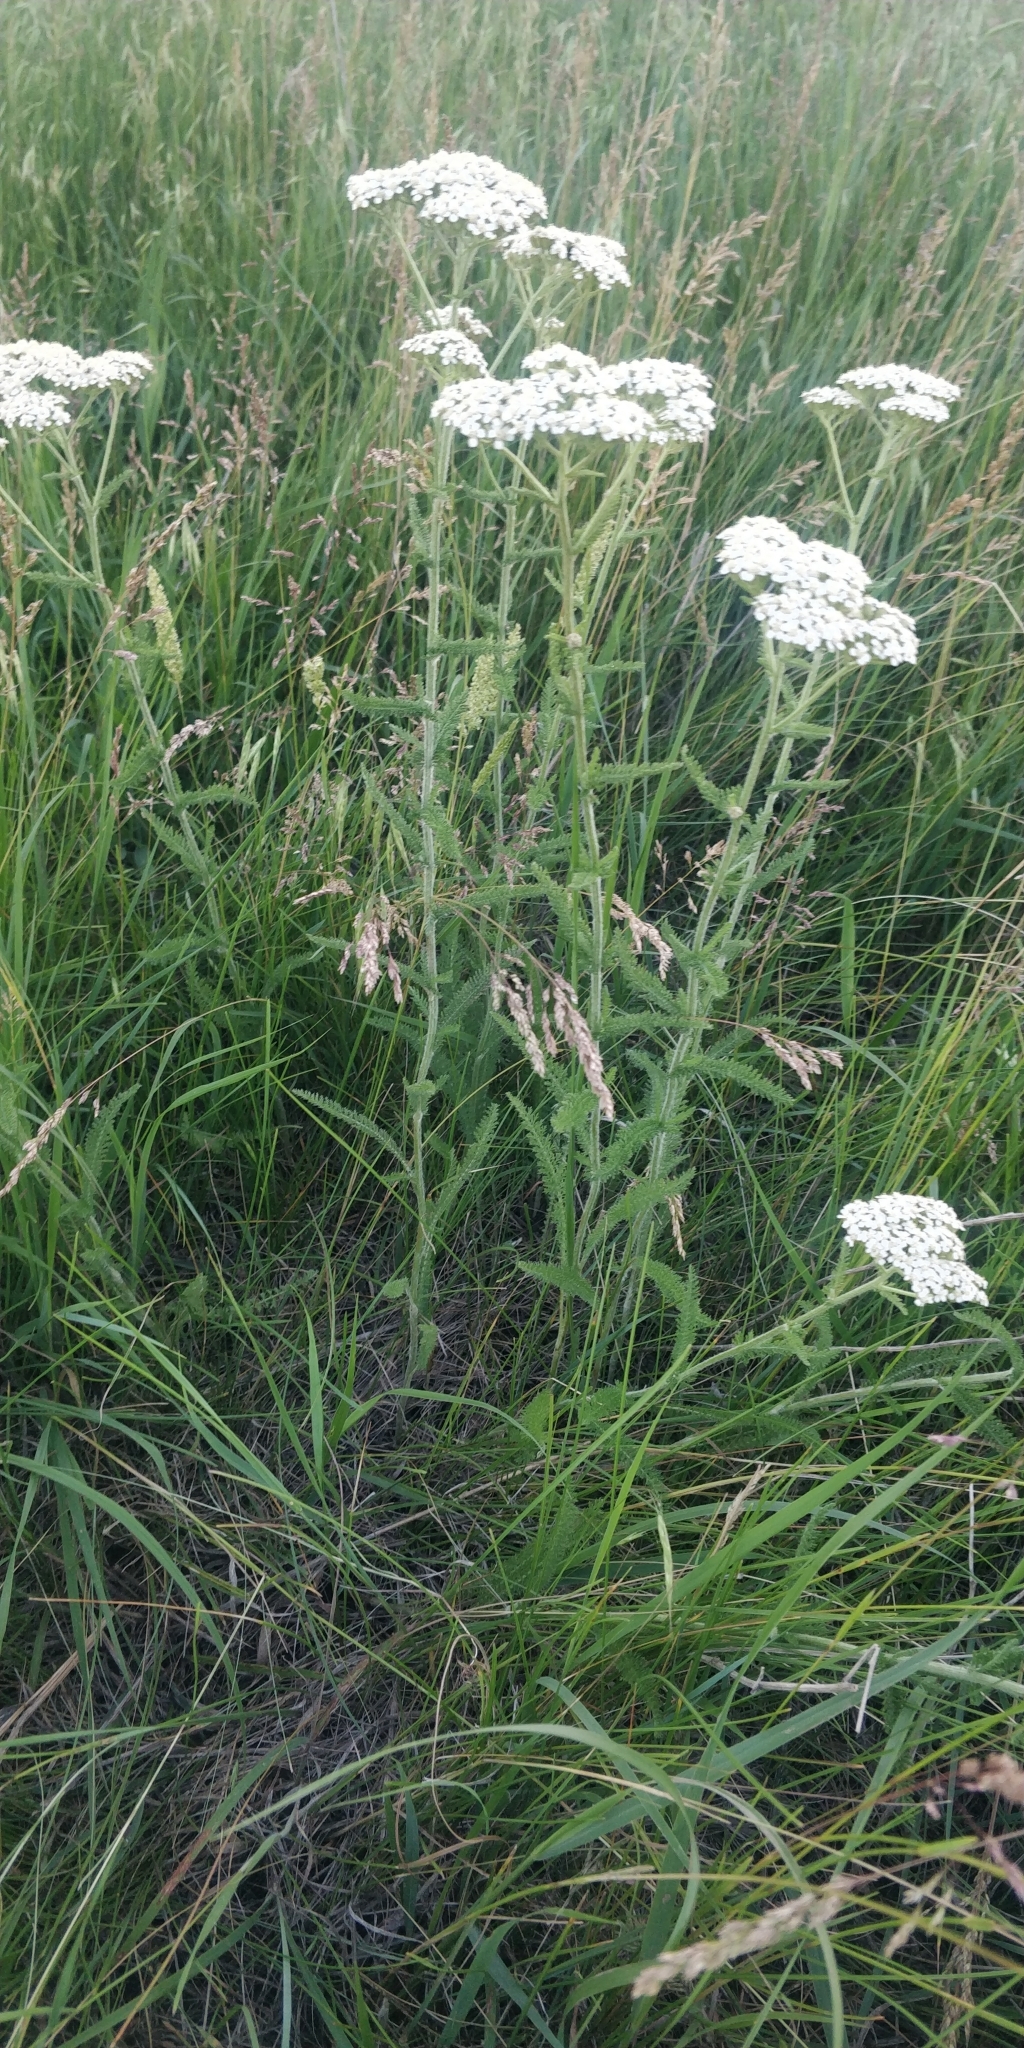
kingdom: Plantae
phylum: Tracheophyta
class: Magnoliopsida
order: Asterales
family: Asteraceae
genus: Achillea
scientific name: Achillea millefolium
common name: Yarrow
